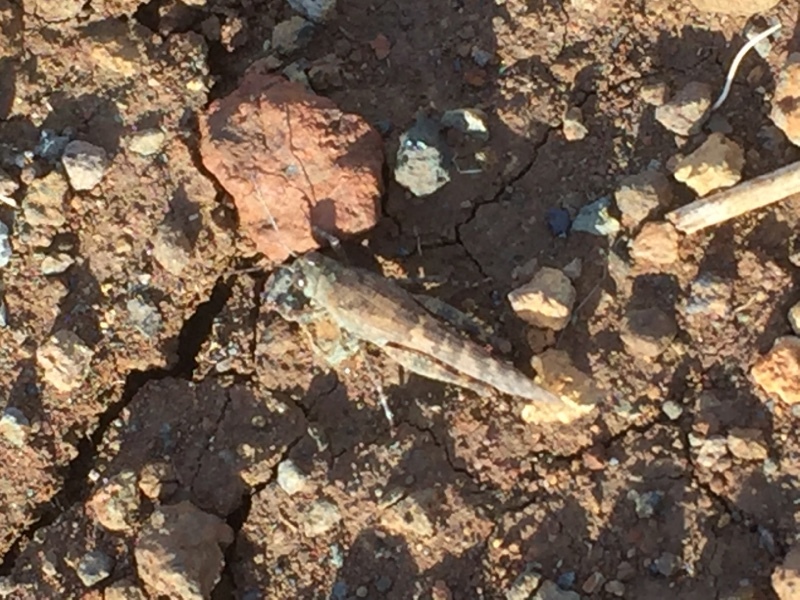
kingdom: Animalia
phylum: Arthropoda
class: Insecta
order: Orthoptera
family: Acrididae
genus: Sphingonotus
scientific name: Sphingonotus rubescens
